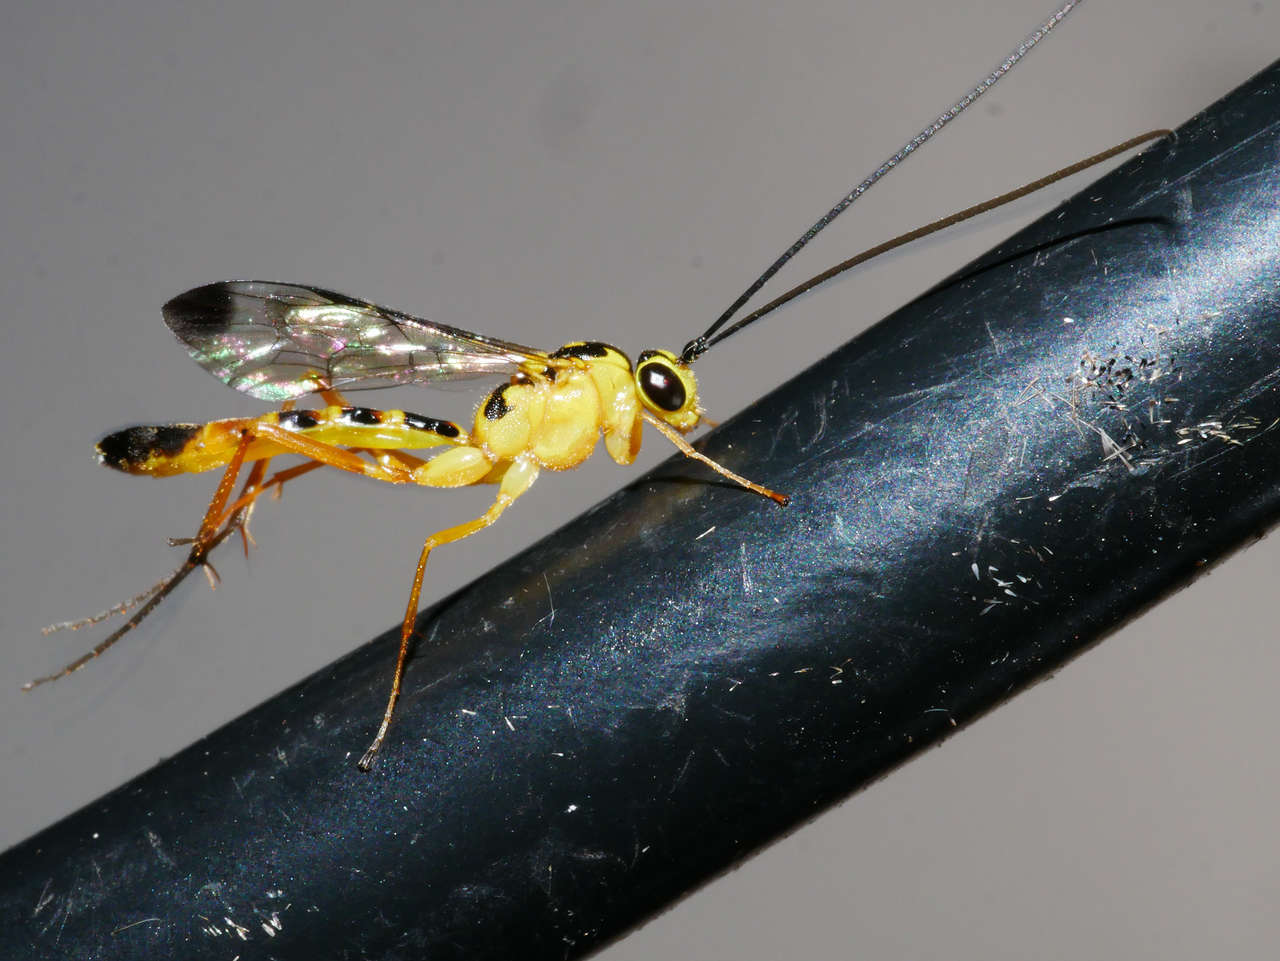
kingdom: Animalia
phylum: Arthropoda
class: Insecta
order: Hymenoptera
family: Ichneumonidae
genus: Xanthopimpla
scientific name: Xanthopimpla
